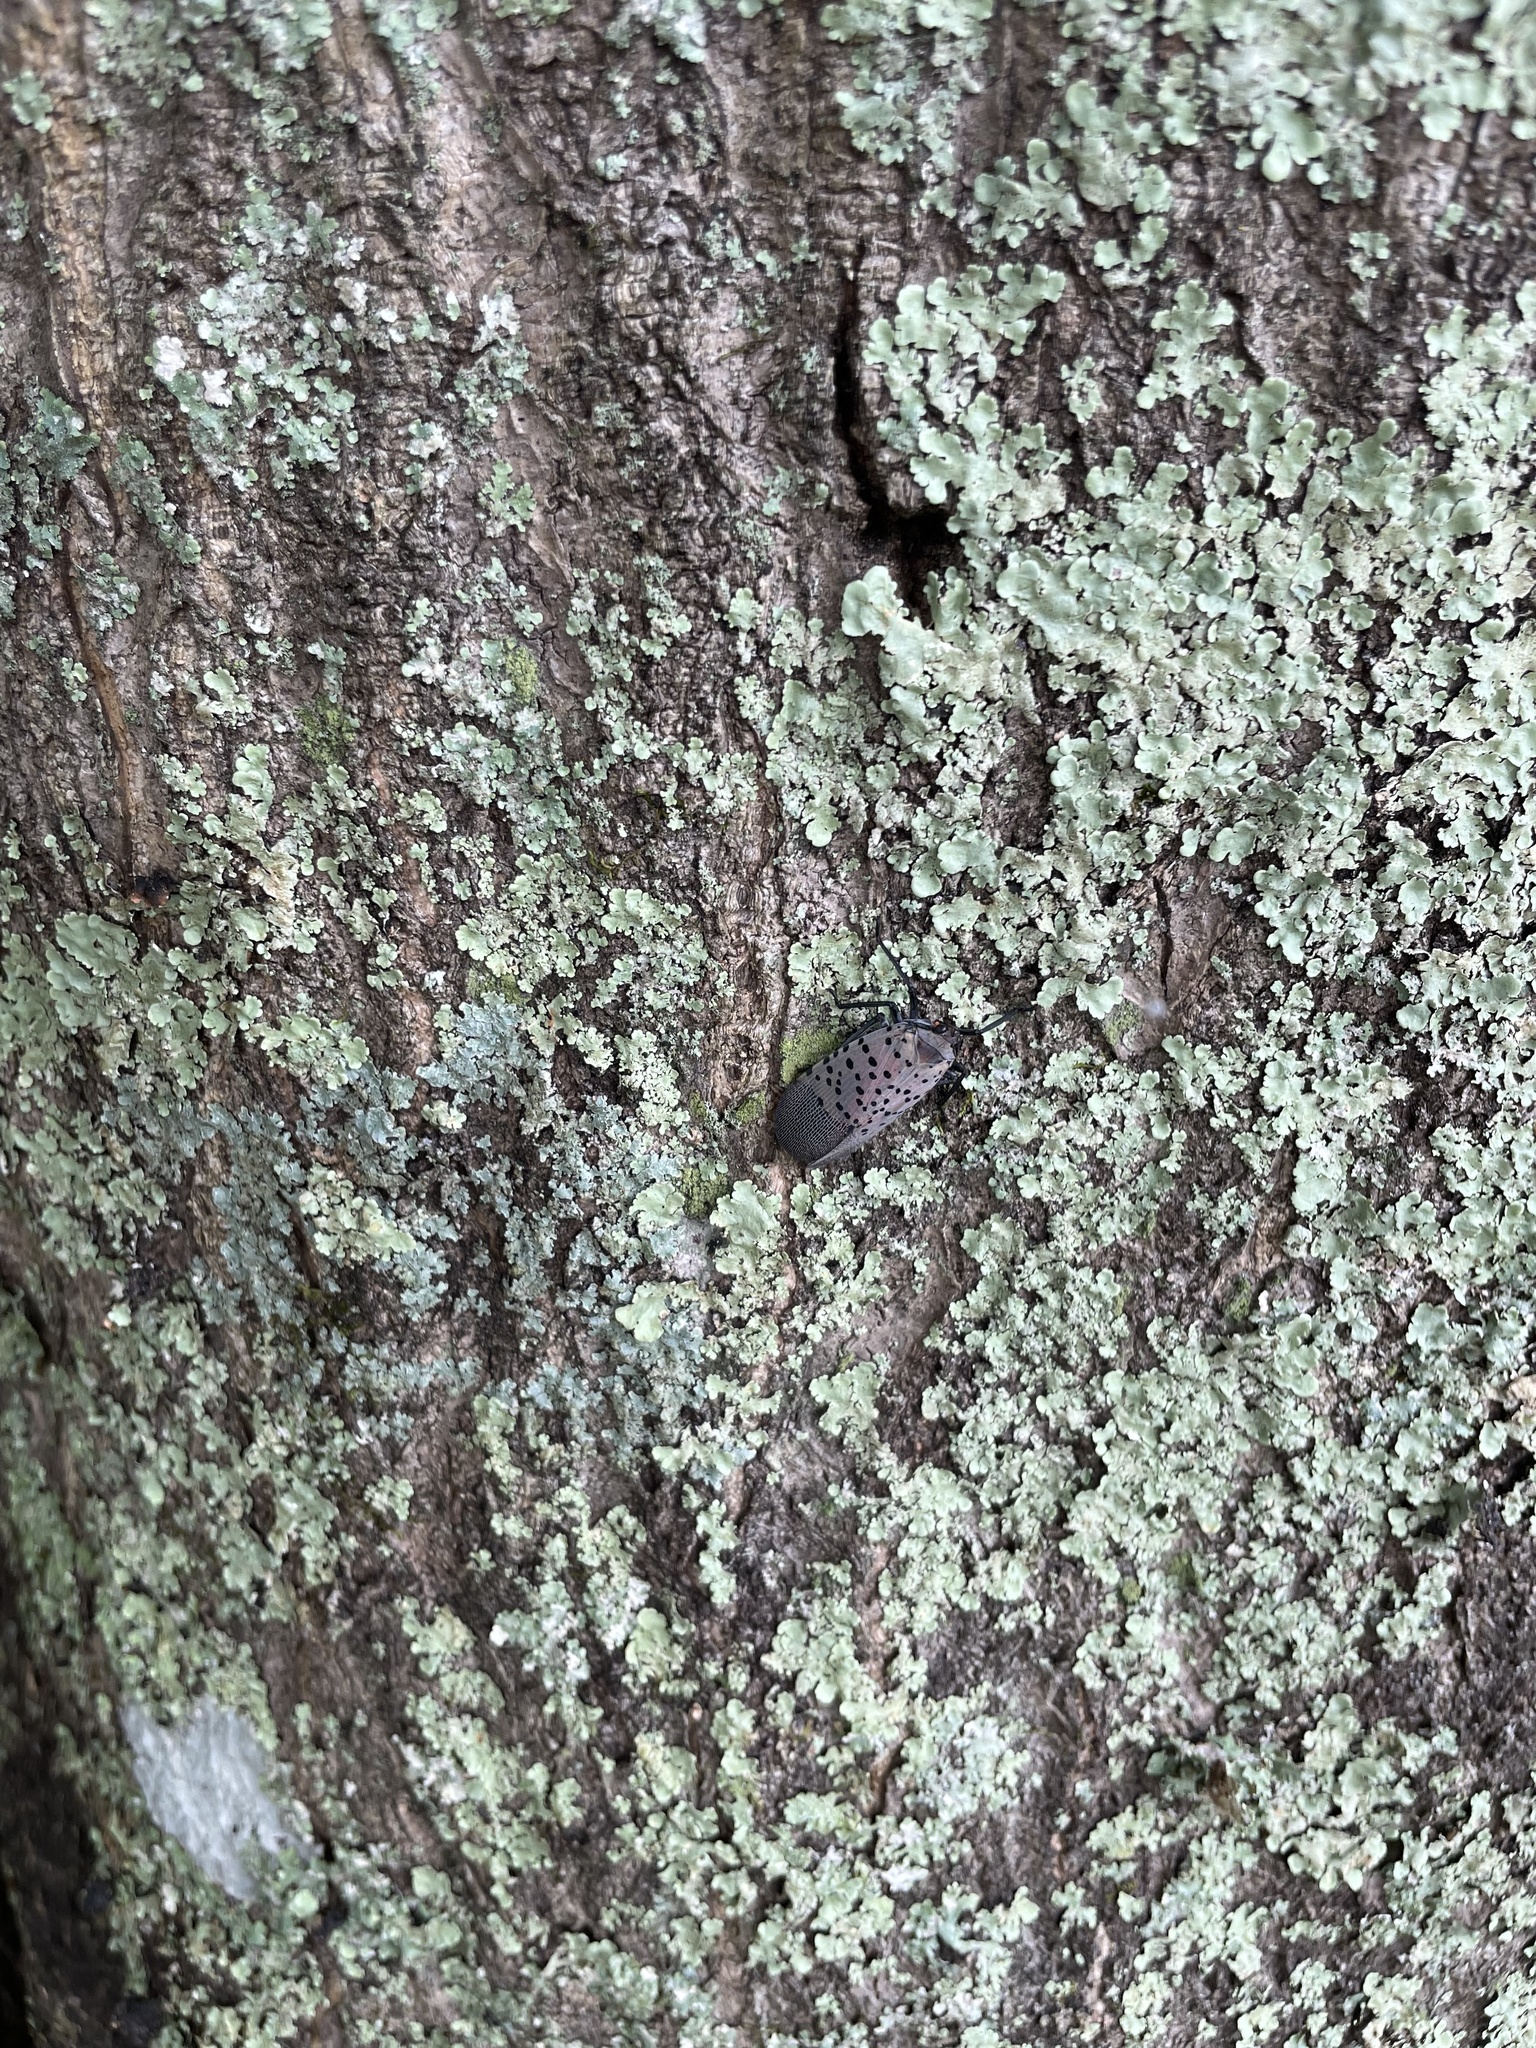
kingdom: Animalia
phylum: Arthropoda
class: Insecta
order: Hemiptera
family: Fulgoridae
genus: Lycorma
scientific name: Lycorma delicatula
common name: Spotted lanternfly
